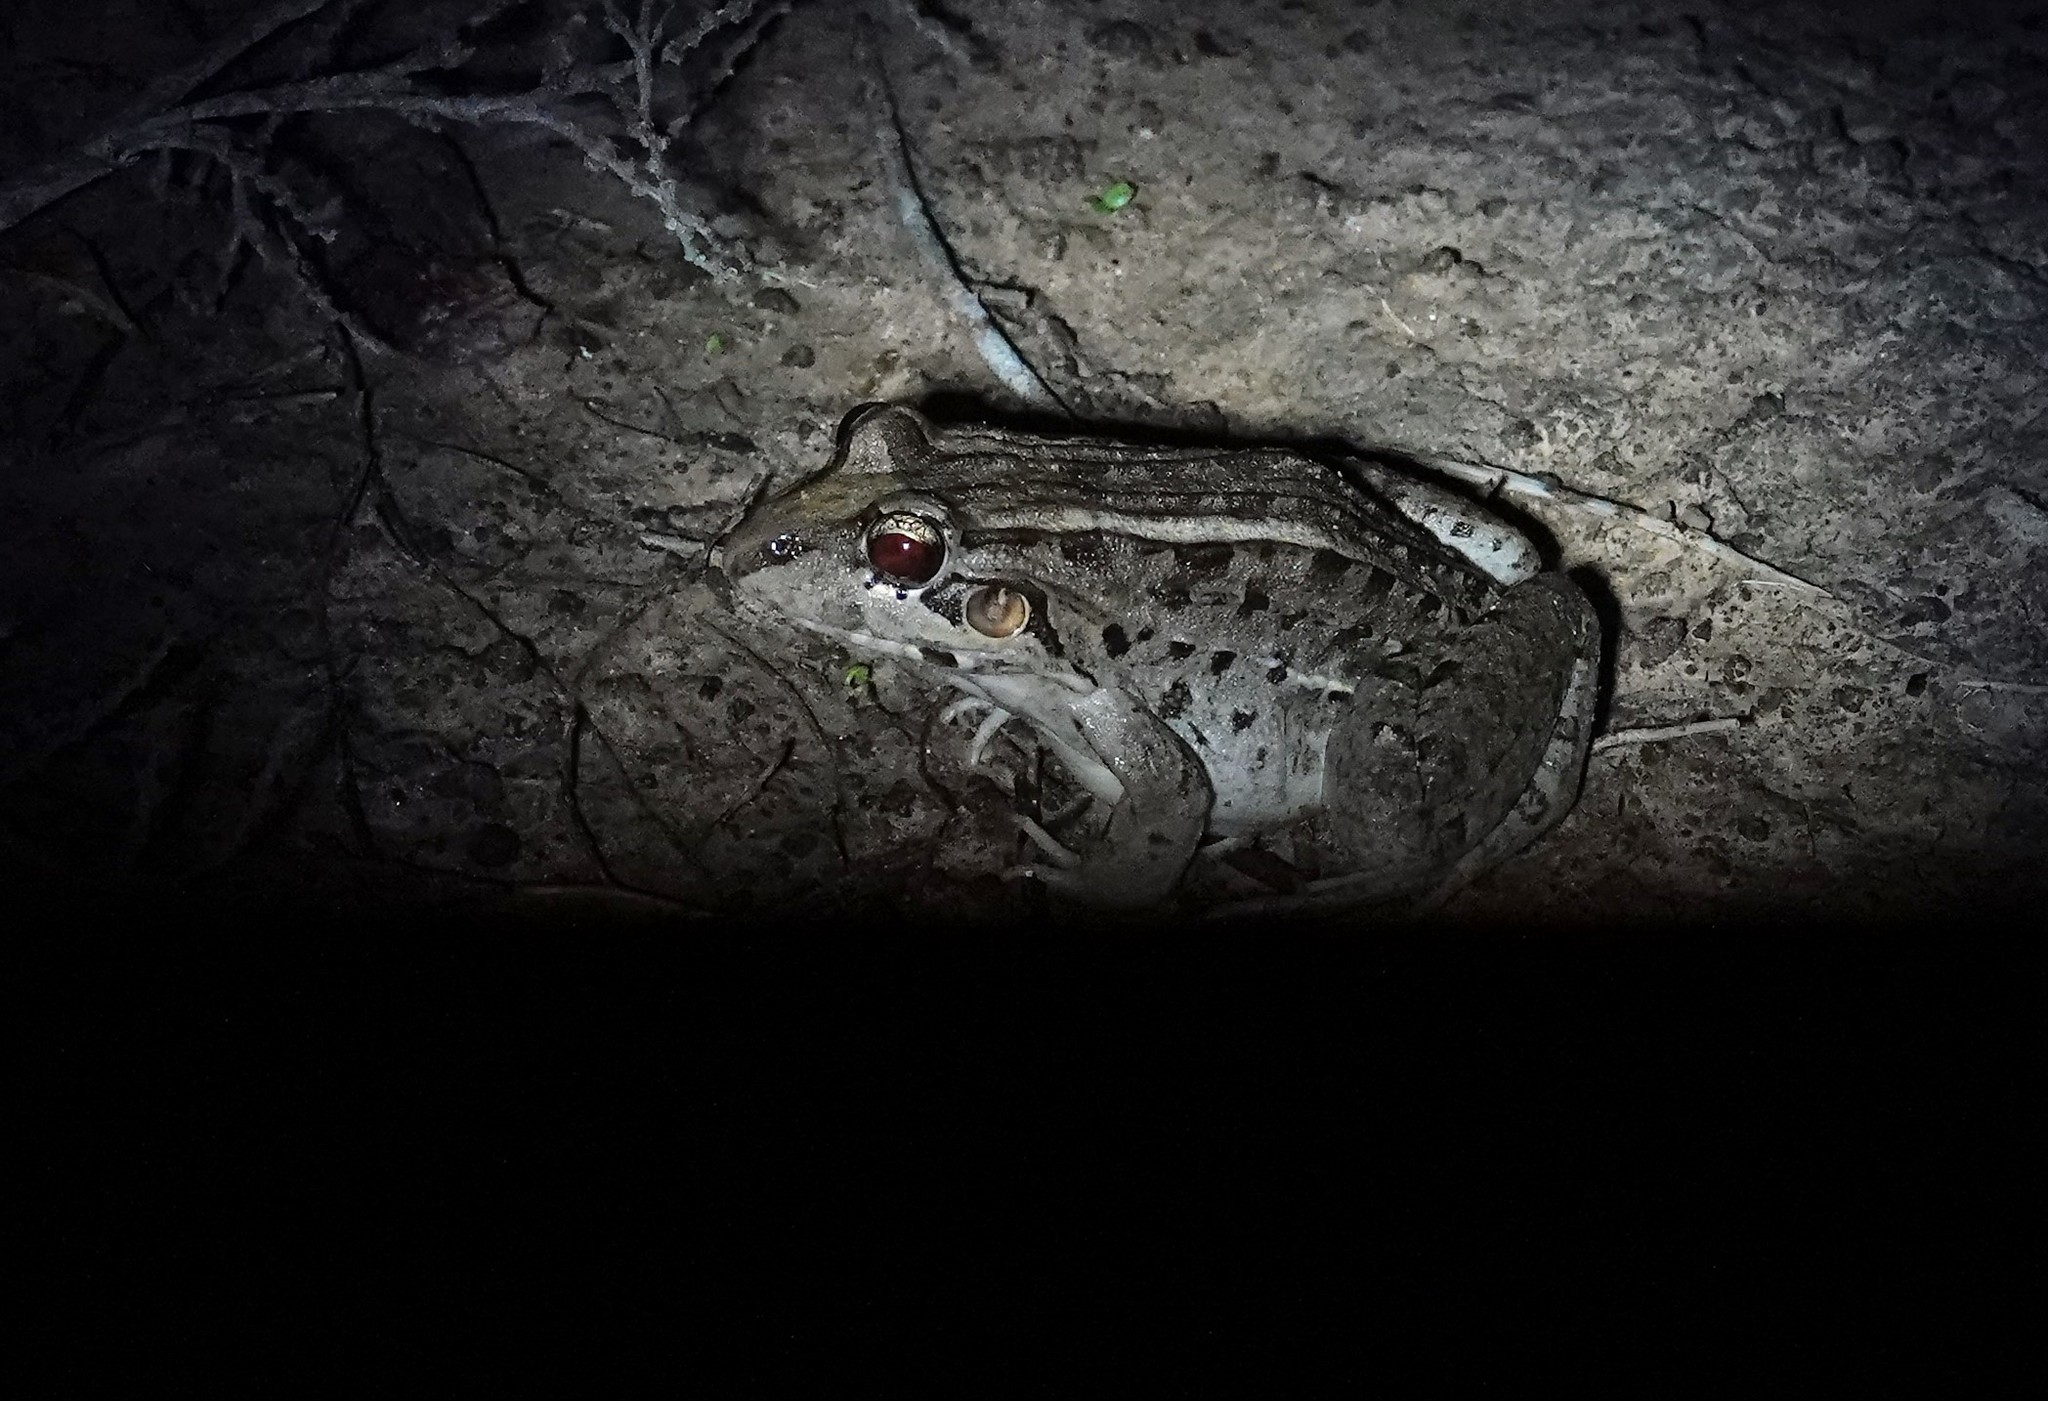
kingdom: Animalia
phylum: Chordata
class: Amphibia
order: Anura
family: Leptodactylidae
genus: Leptodactylus
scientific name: Leptodactylus macrosternum
